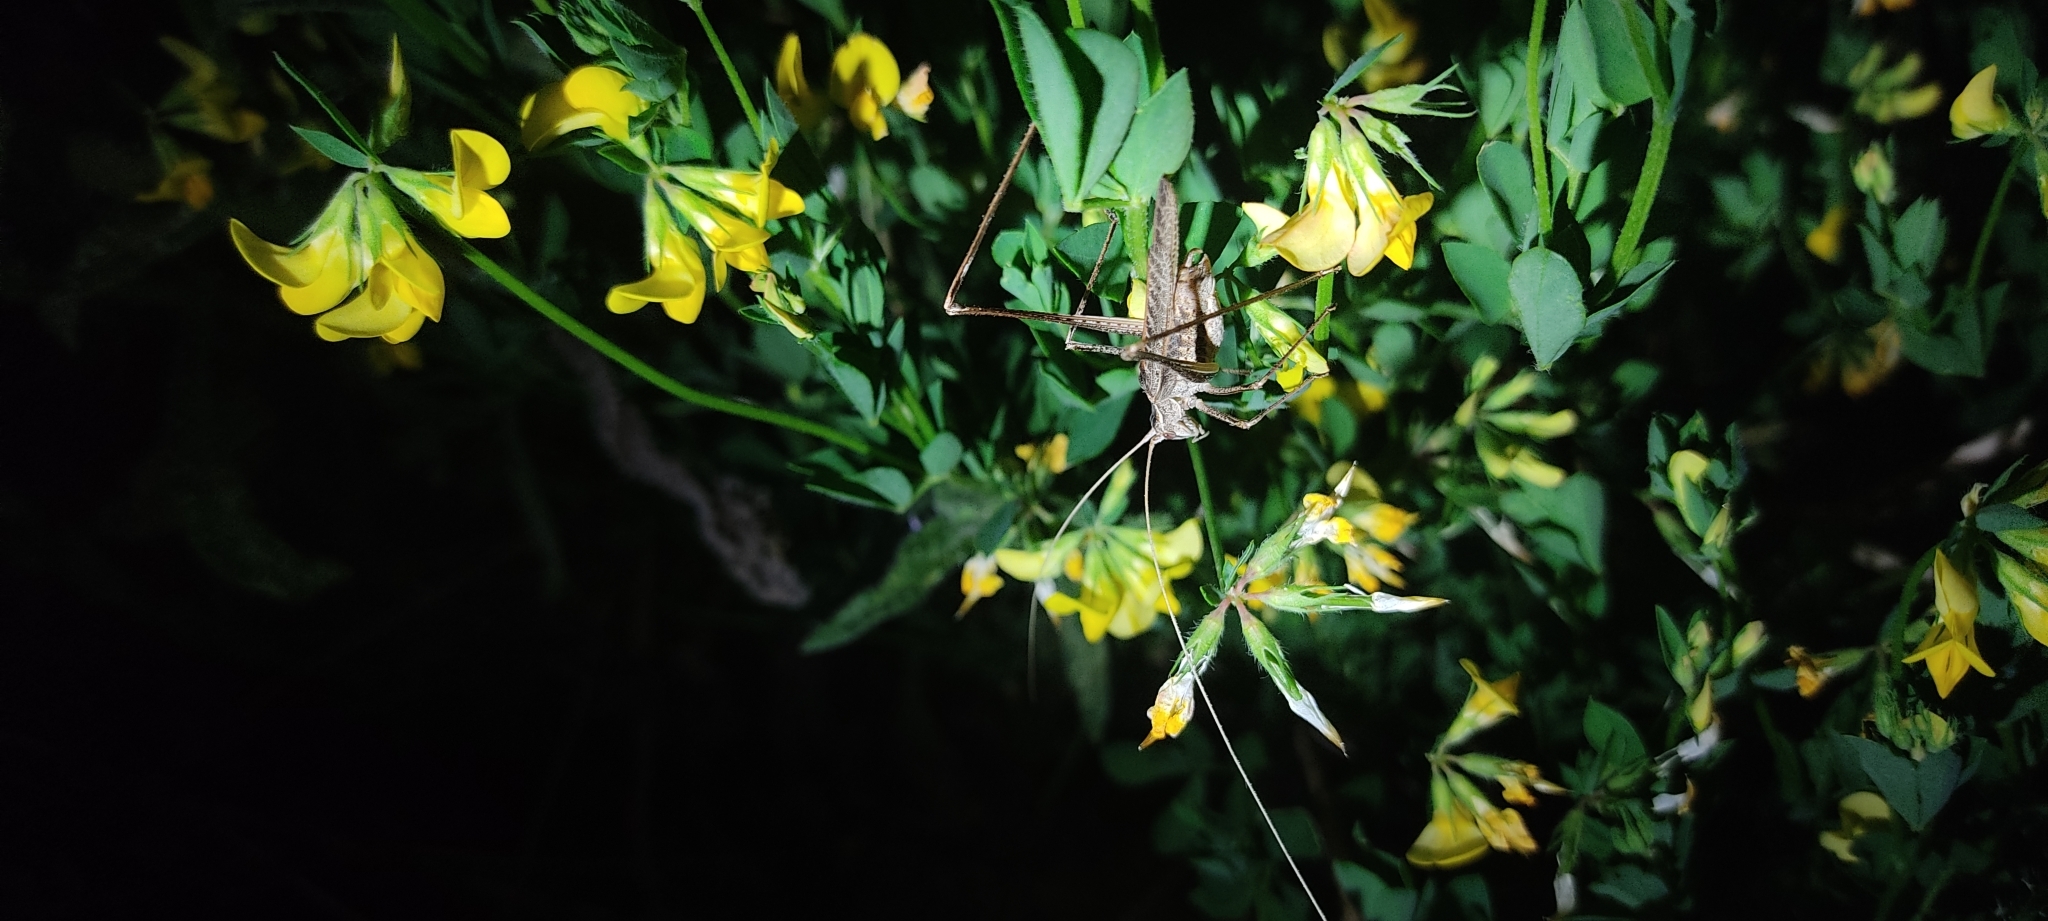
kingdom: Animalia
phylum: Arthropoda
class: Insecta
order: Orthoptera
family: Tettigoniidae
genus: Tylopsis
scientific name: Tylopsis lilifolia
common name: Lily bush-cricket
